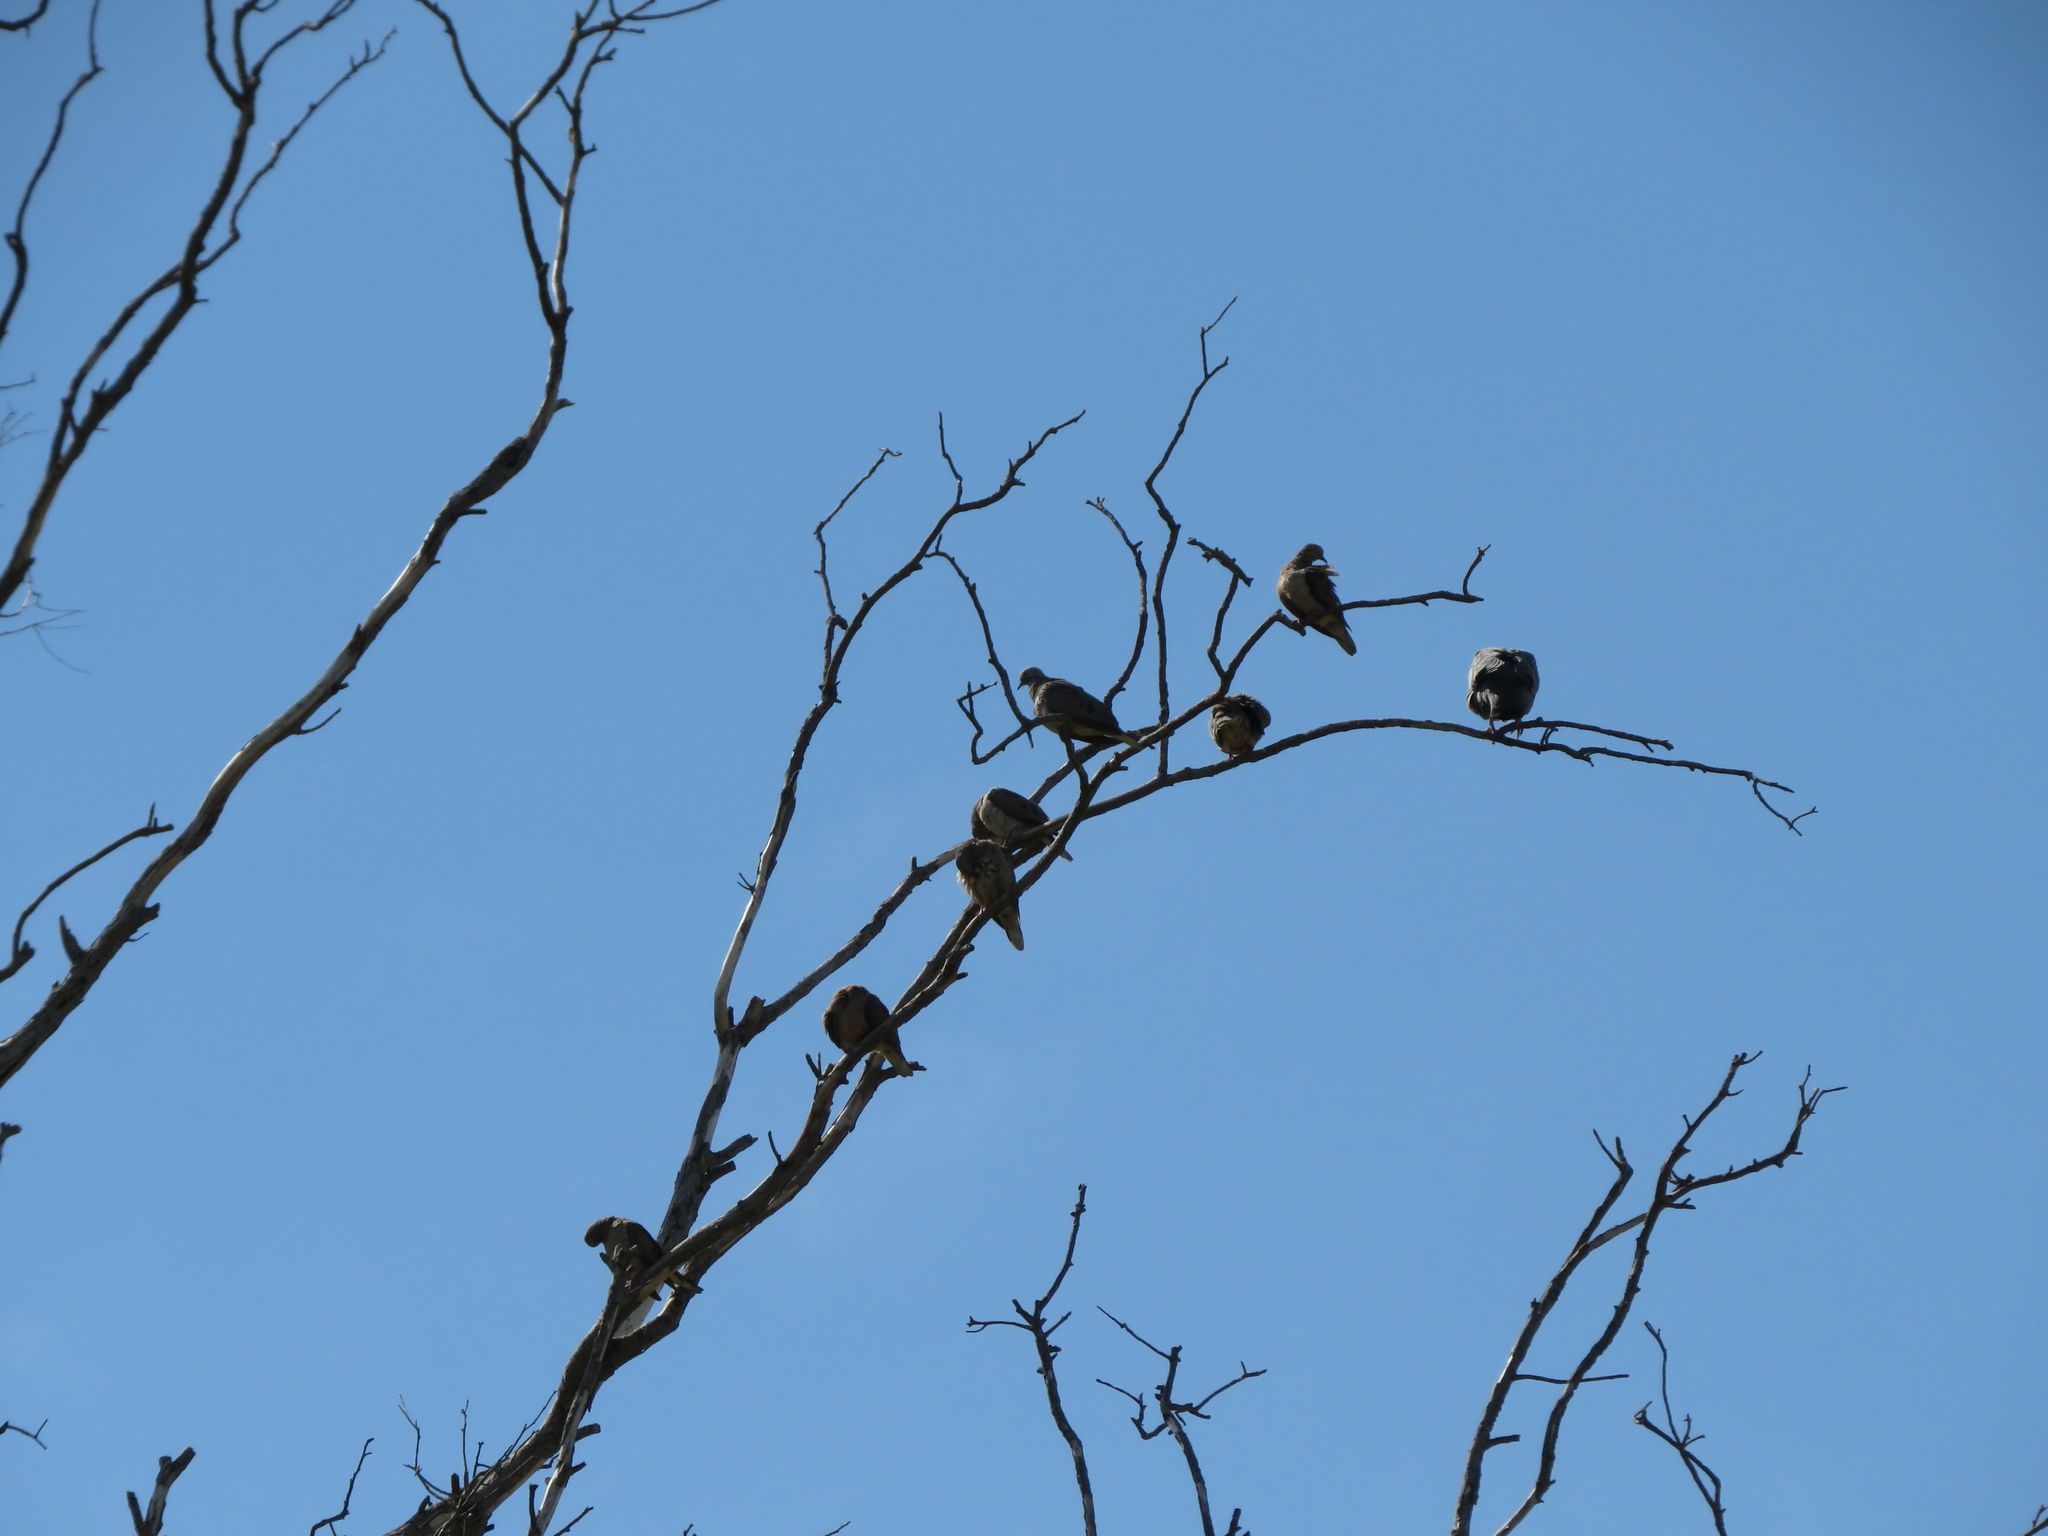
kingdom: Animalia
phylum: Chordata
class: Aves
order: Columbiformes
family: Columbidae
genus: Zenaida
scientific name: Zenaida auriculata
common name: Eared dove
